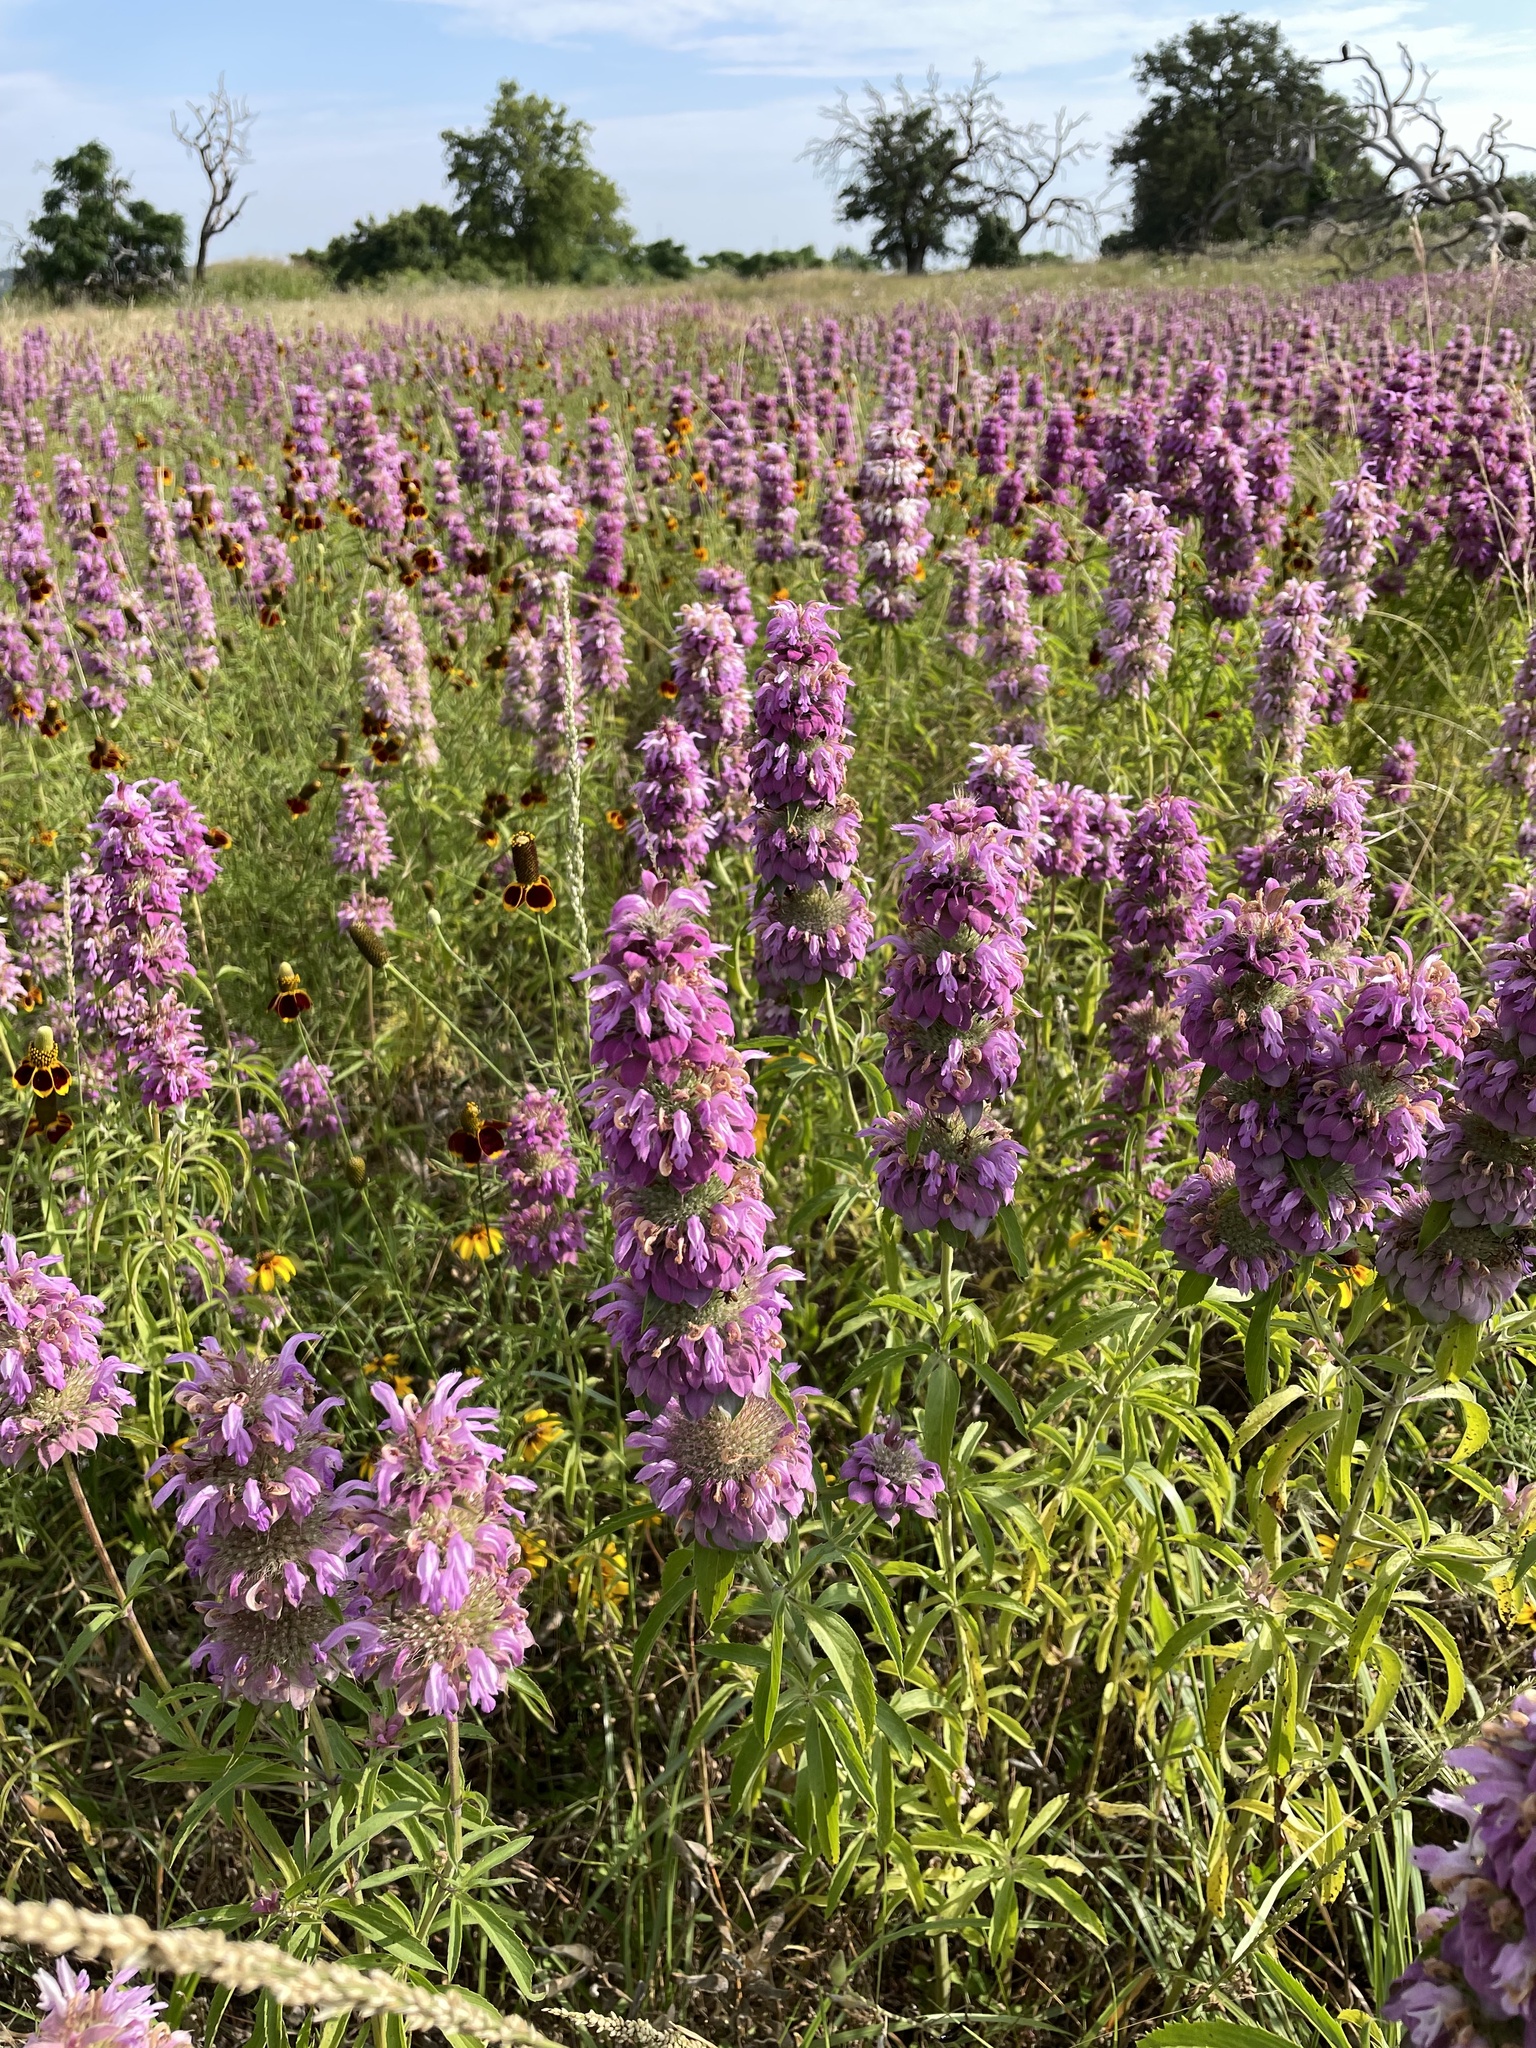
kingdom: Plantae
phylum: Tracheophyta
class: Magnoliopsida
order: Lamiales
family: Lamiaceae
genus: Monarda
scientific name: Monarda citriodora
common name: Lemon beebalm
